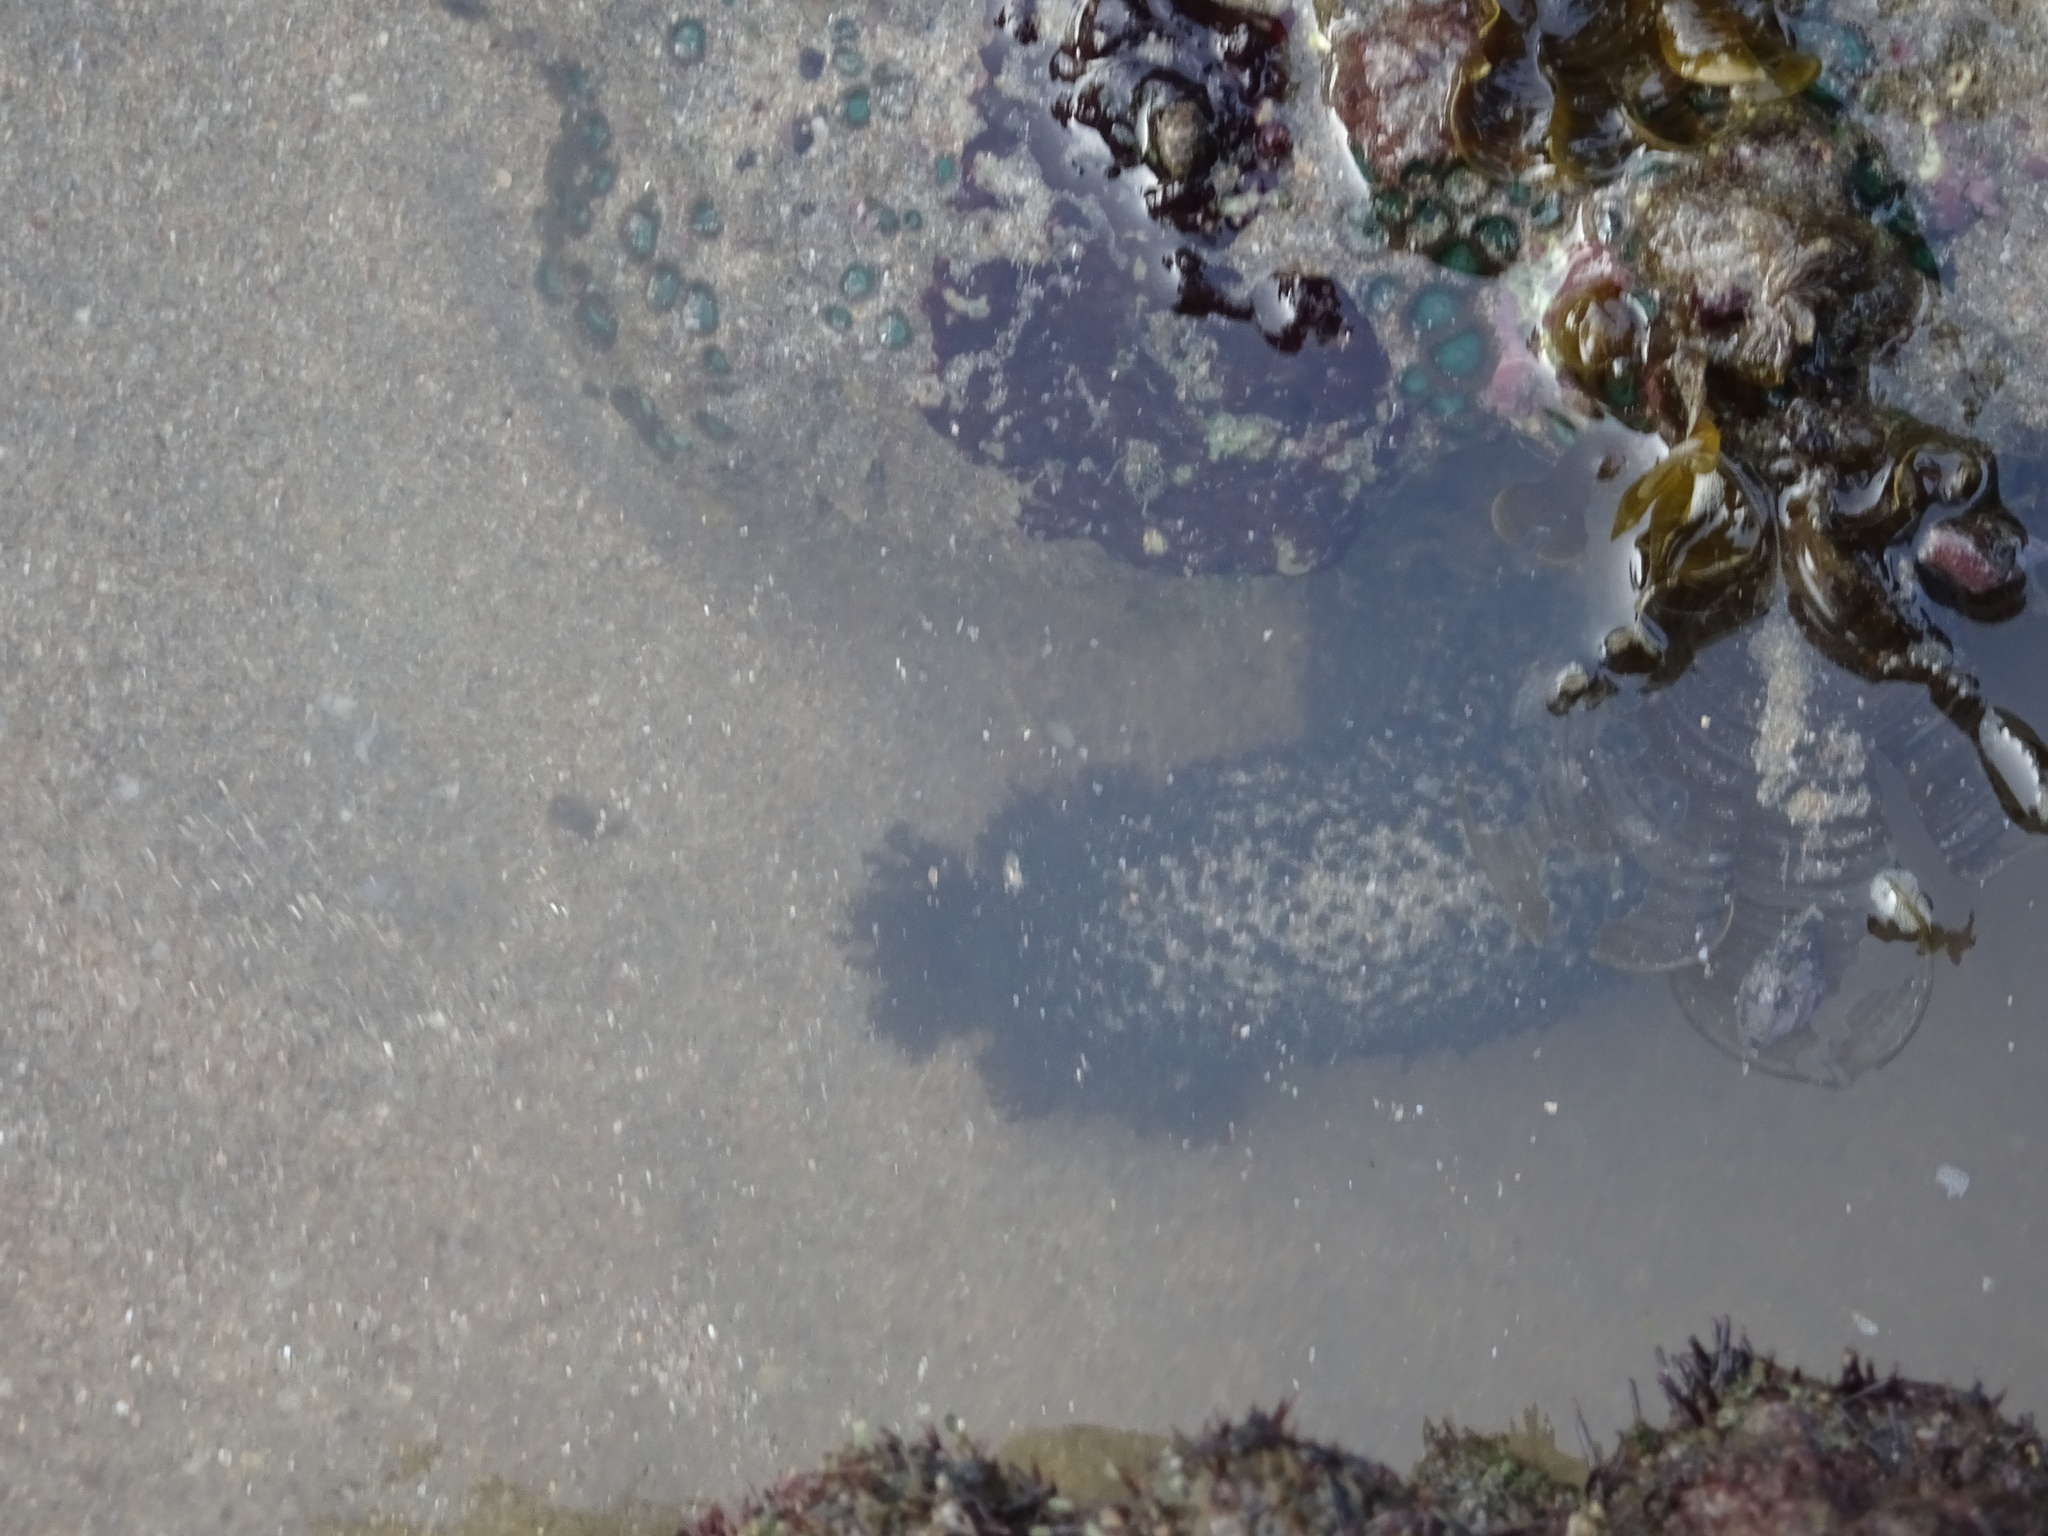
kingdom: Animalia
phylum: Echinodermata
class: Holothuroidea
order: Holothuriida
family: Holothuriidae
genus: Holothuria
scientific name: Holothuria leucospilota
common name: White thread fish
